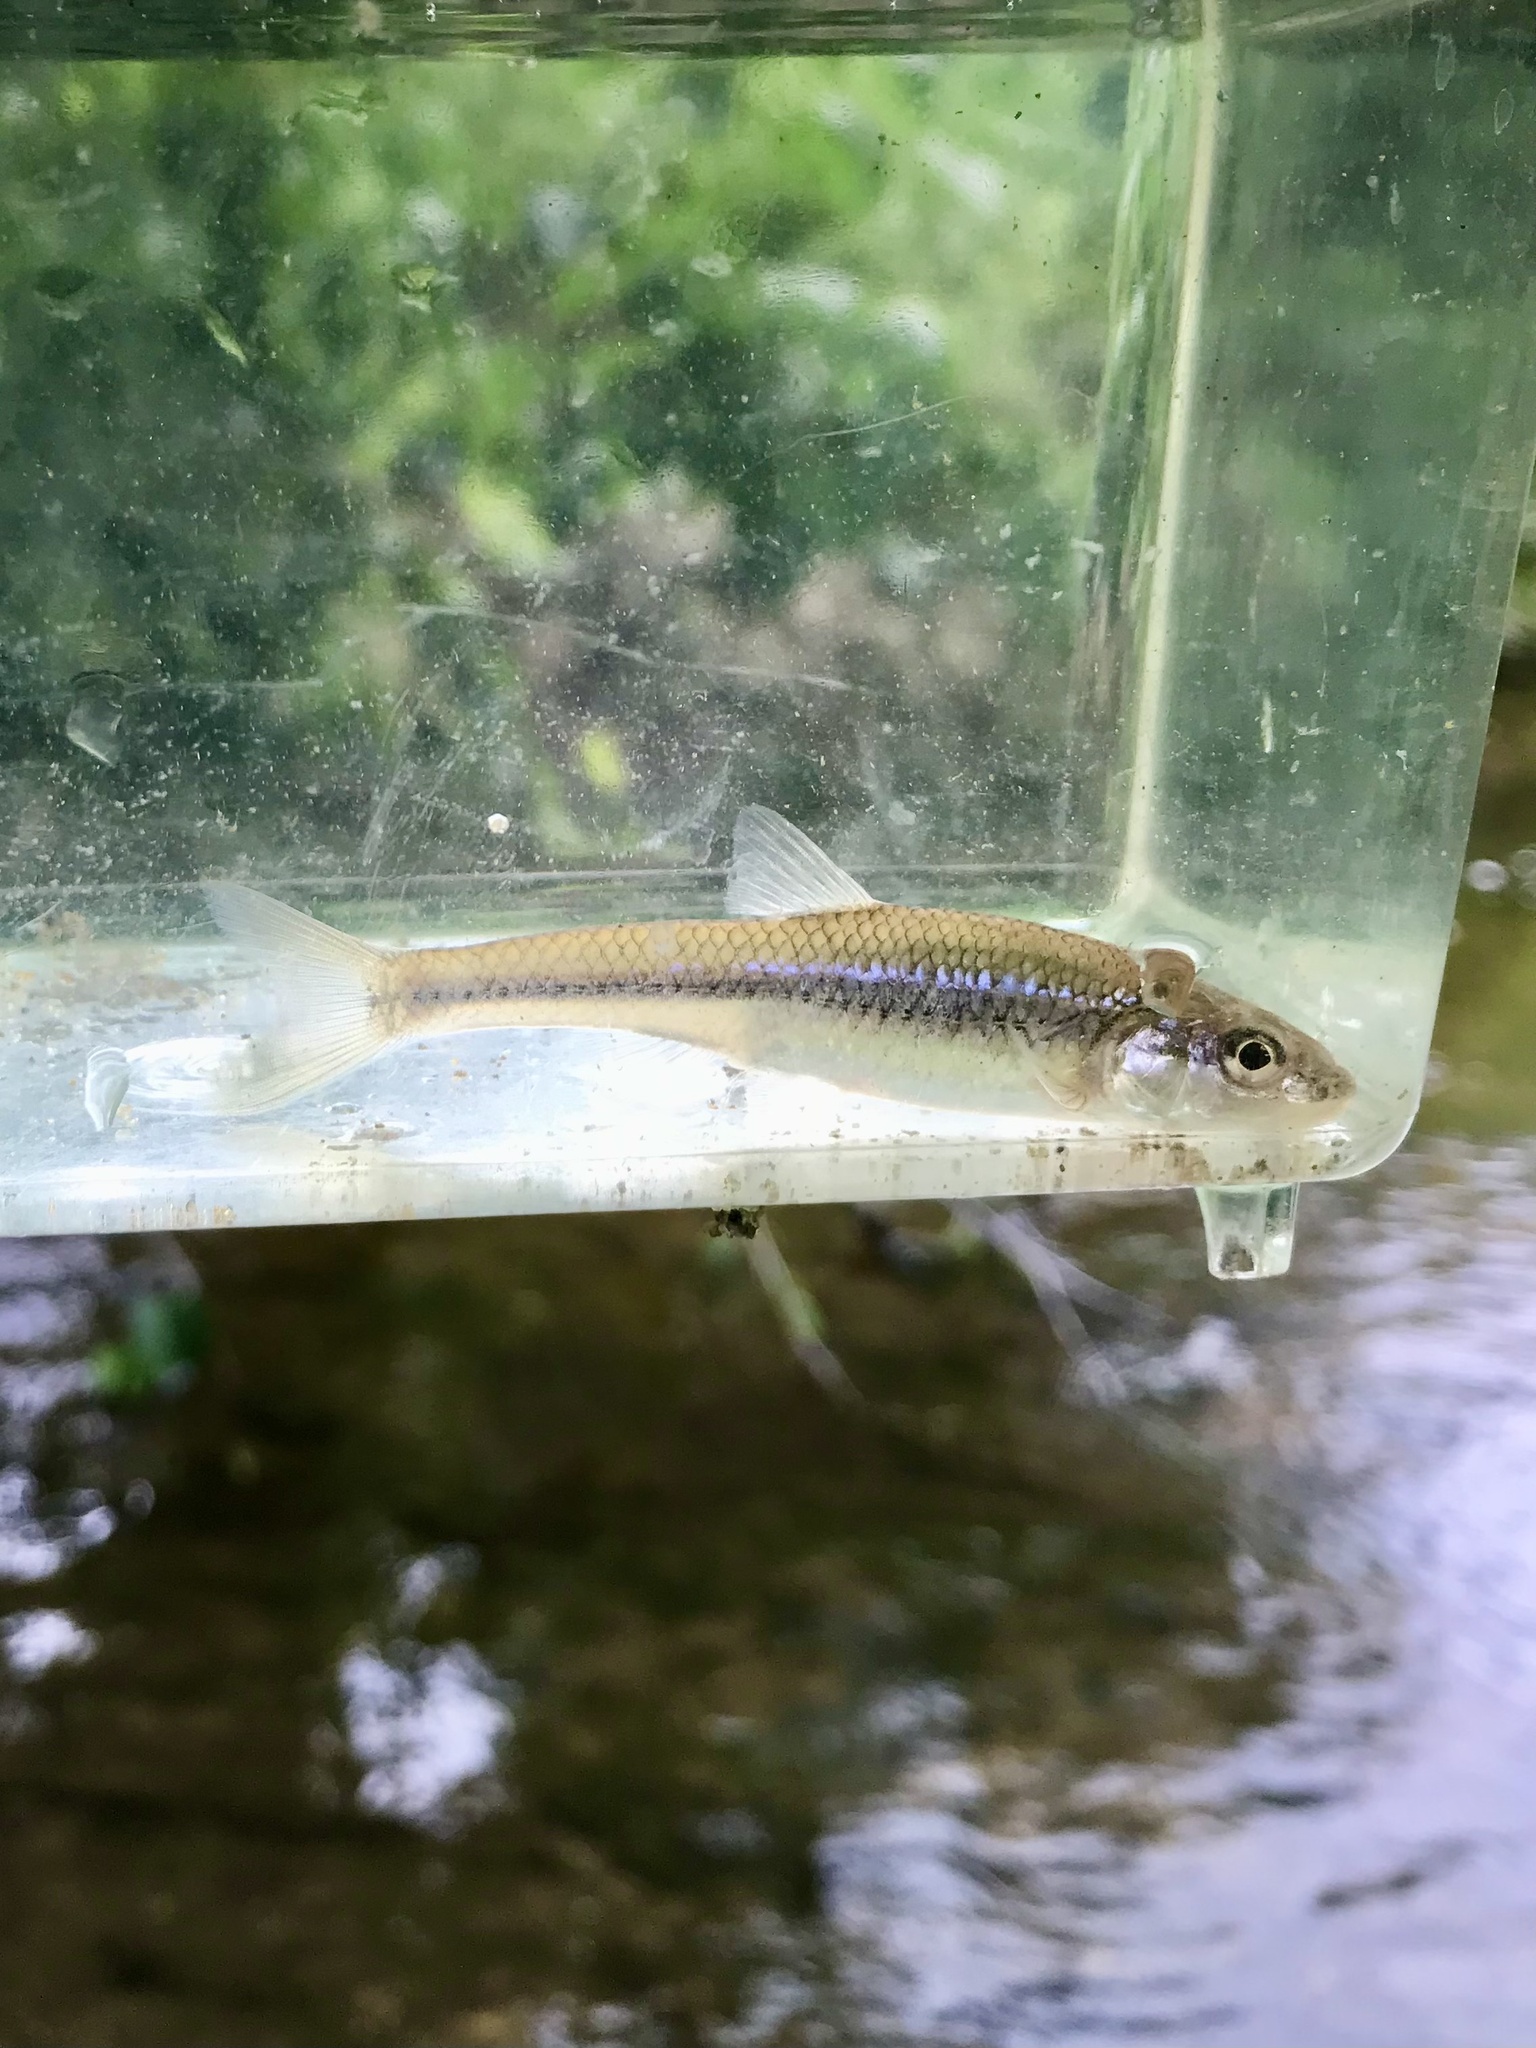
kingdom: Animalia
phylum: Chordata
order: Cypriniformes
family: Cyprinidae
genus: Ericymba
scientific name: Ericymba
